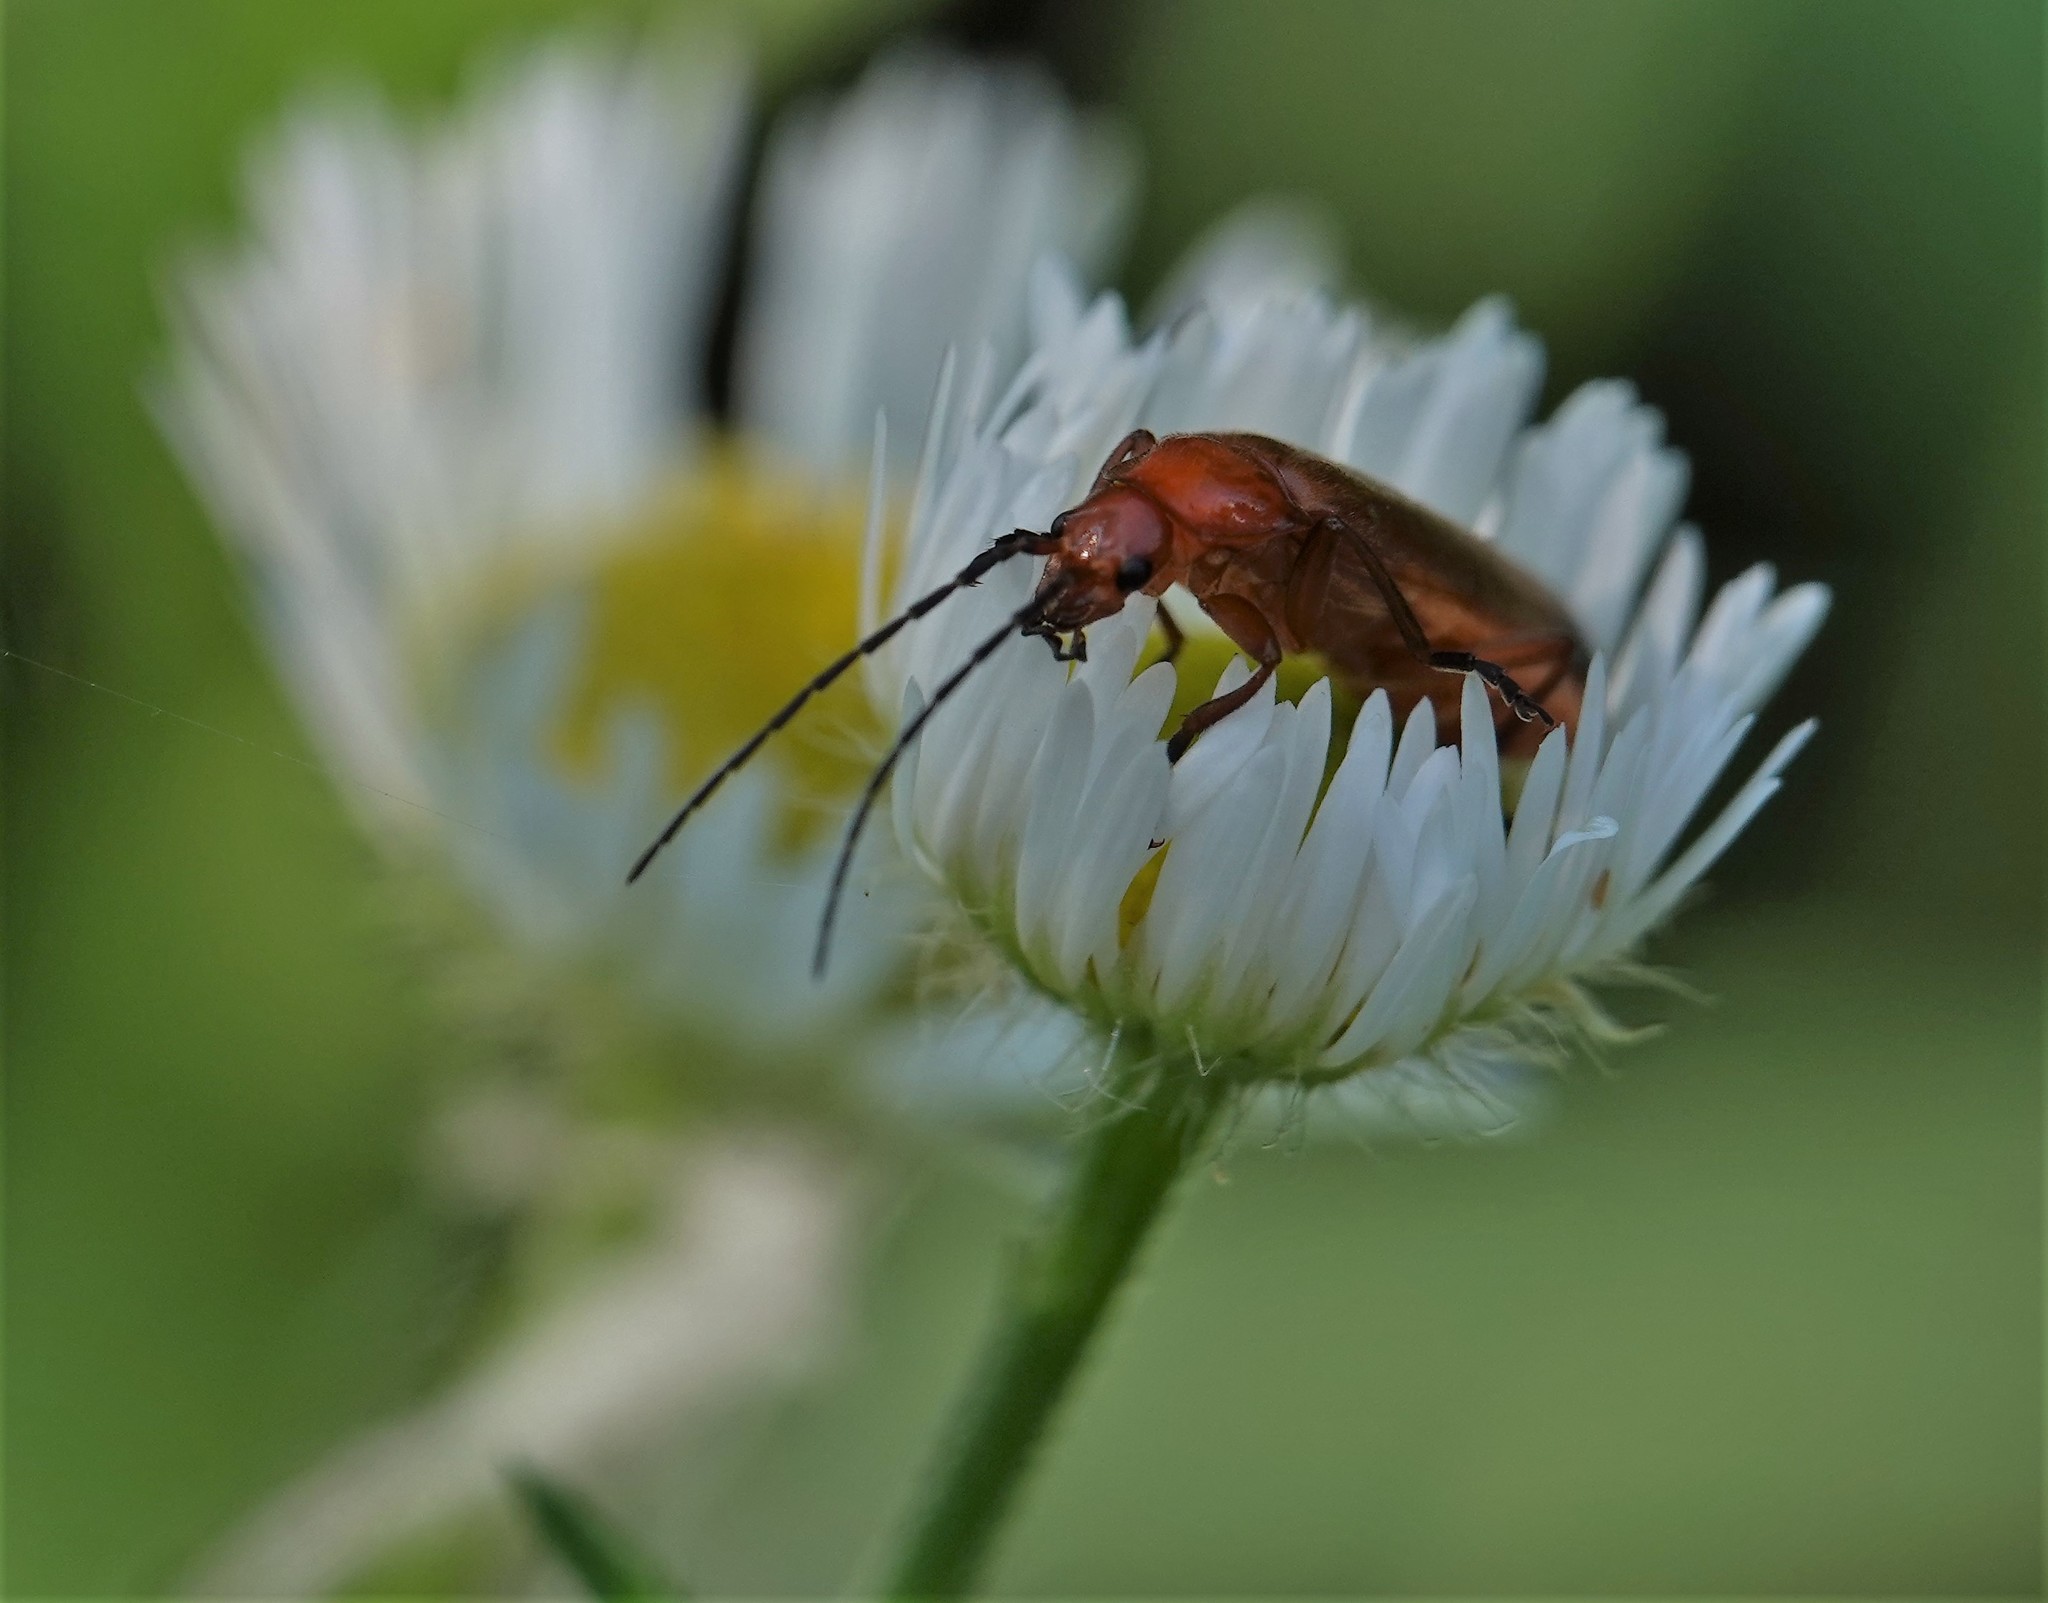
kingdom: Animalia
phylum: Arthropoda
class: Insecta
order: Coleoptera
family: Cantharidae
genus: Rhagonycha
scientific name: Rhagonycha fulva
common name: Common red soldier beetle
